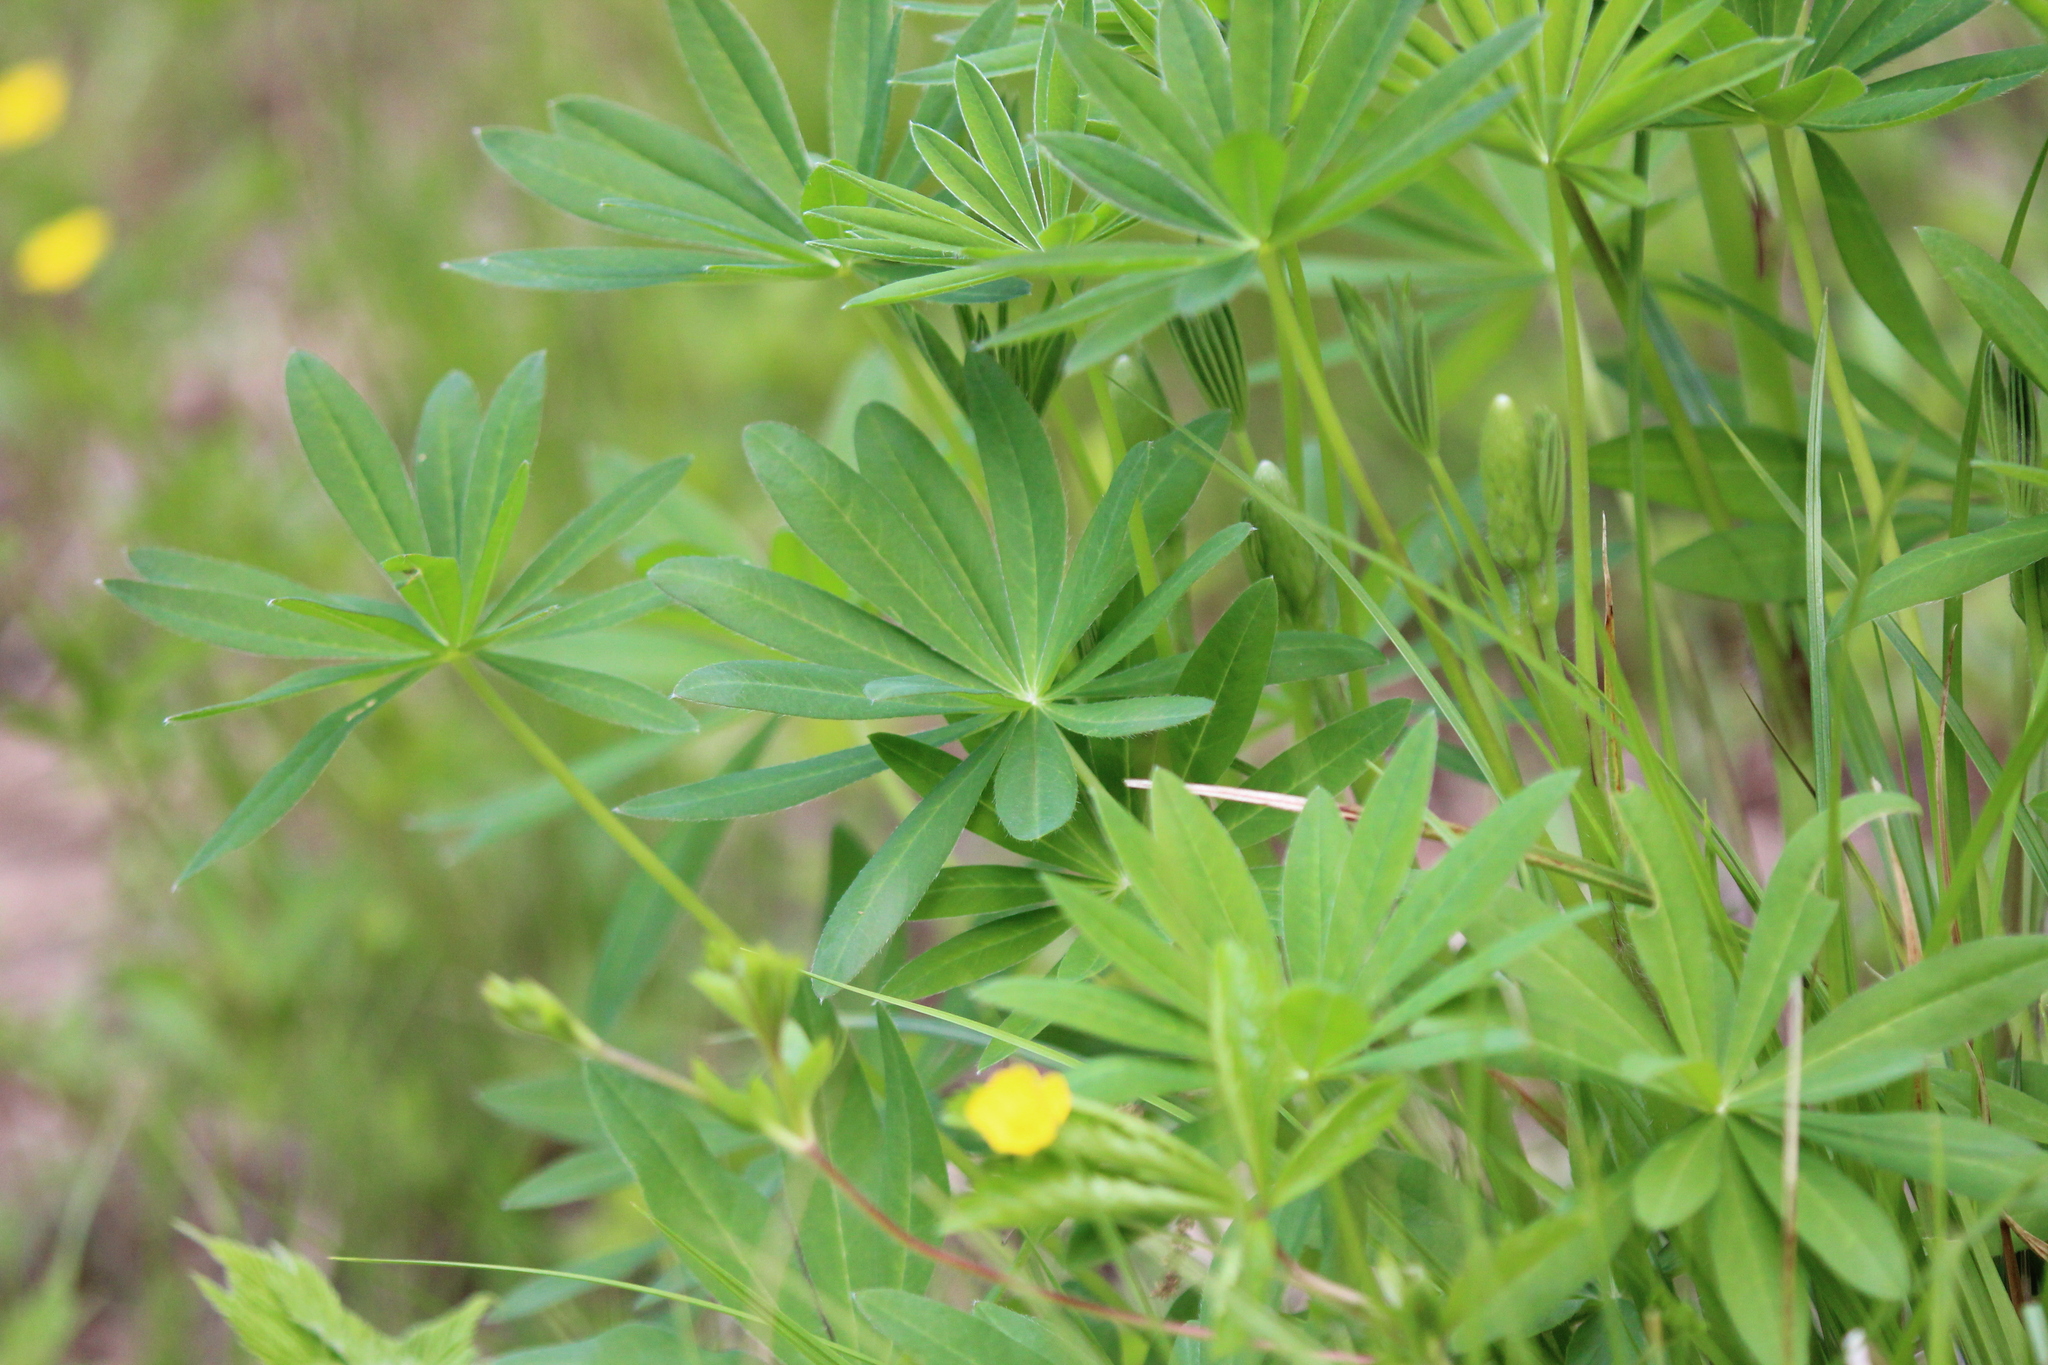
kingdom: Plantae
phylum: Tracheophyta
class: Magnoliopsida
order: Fabales
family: Fabaceae
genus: Lupinus
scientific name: Lupinus polyphyllus
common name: Garden lupin
